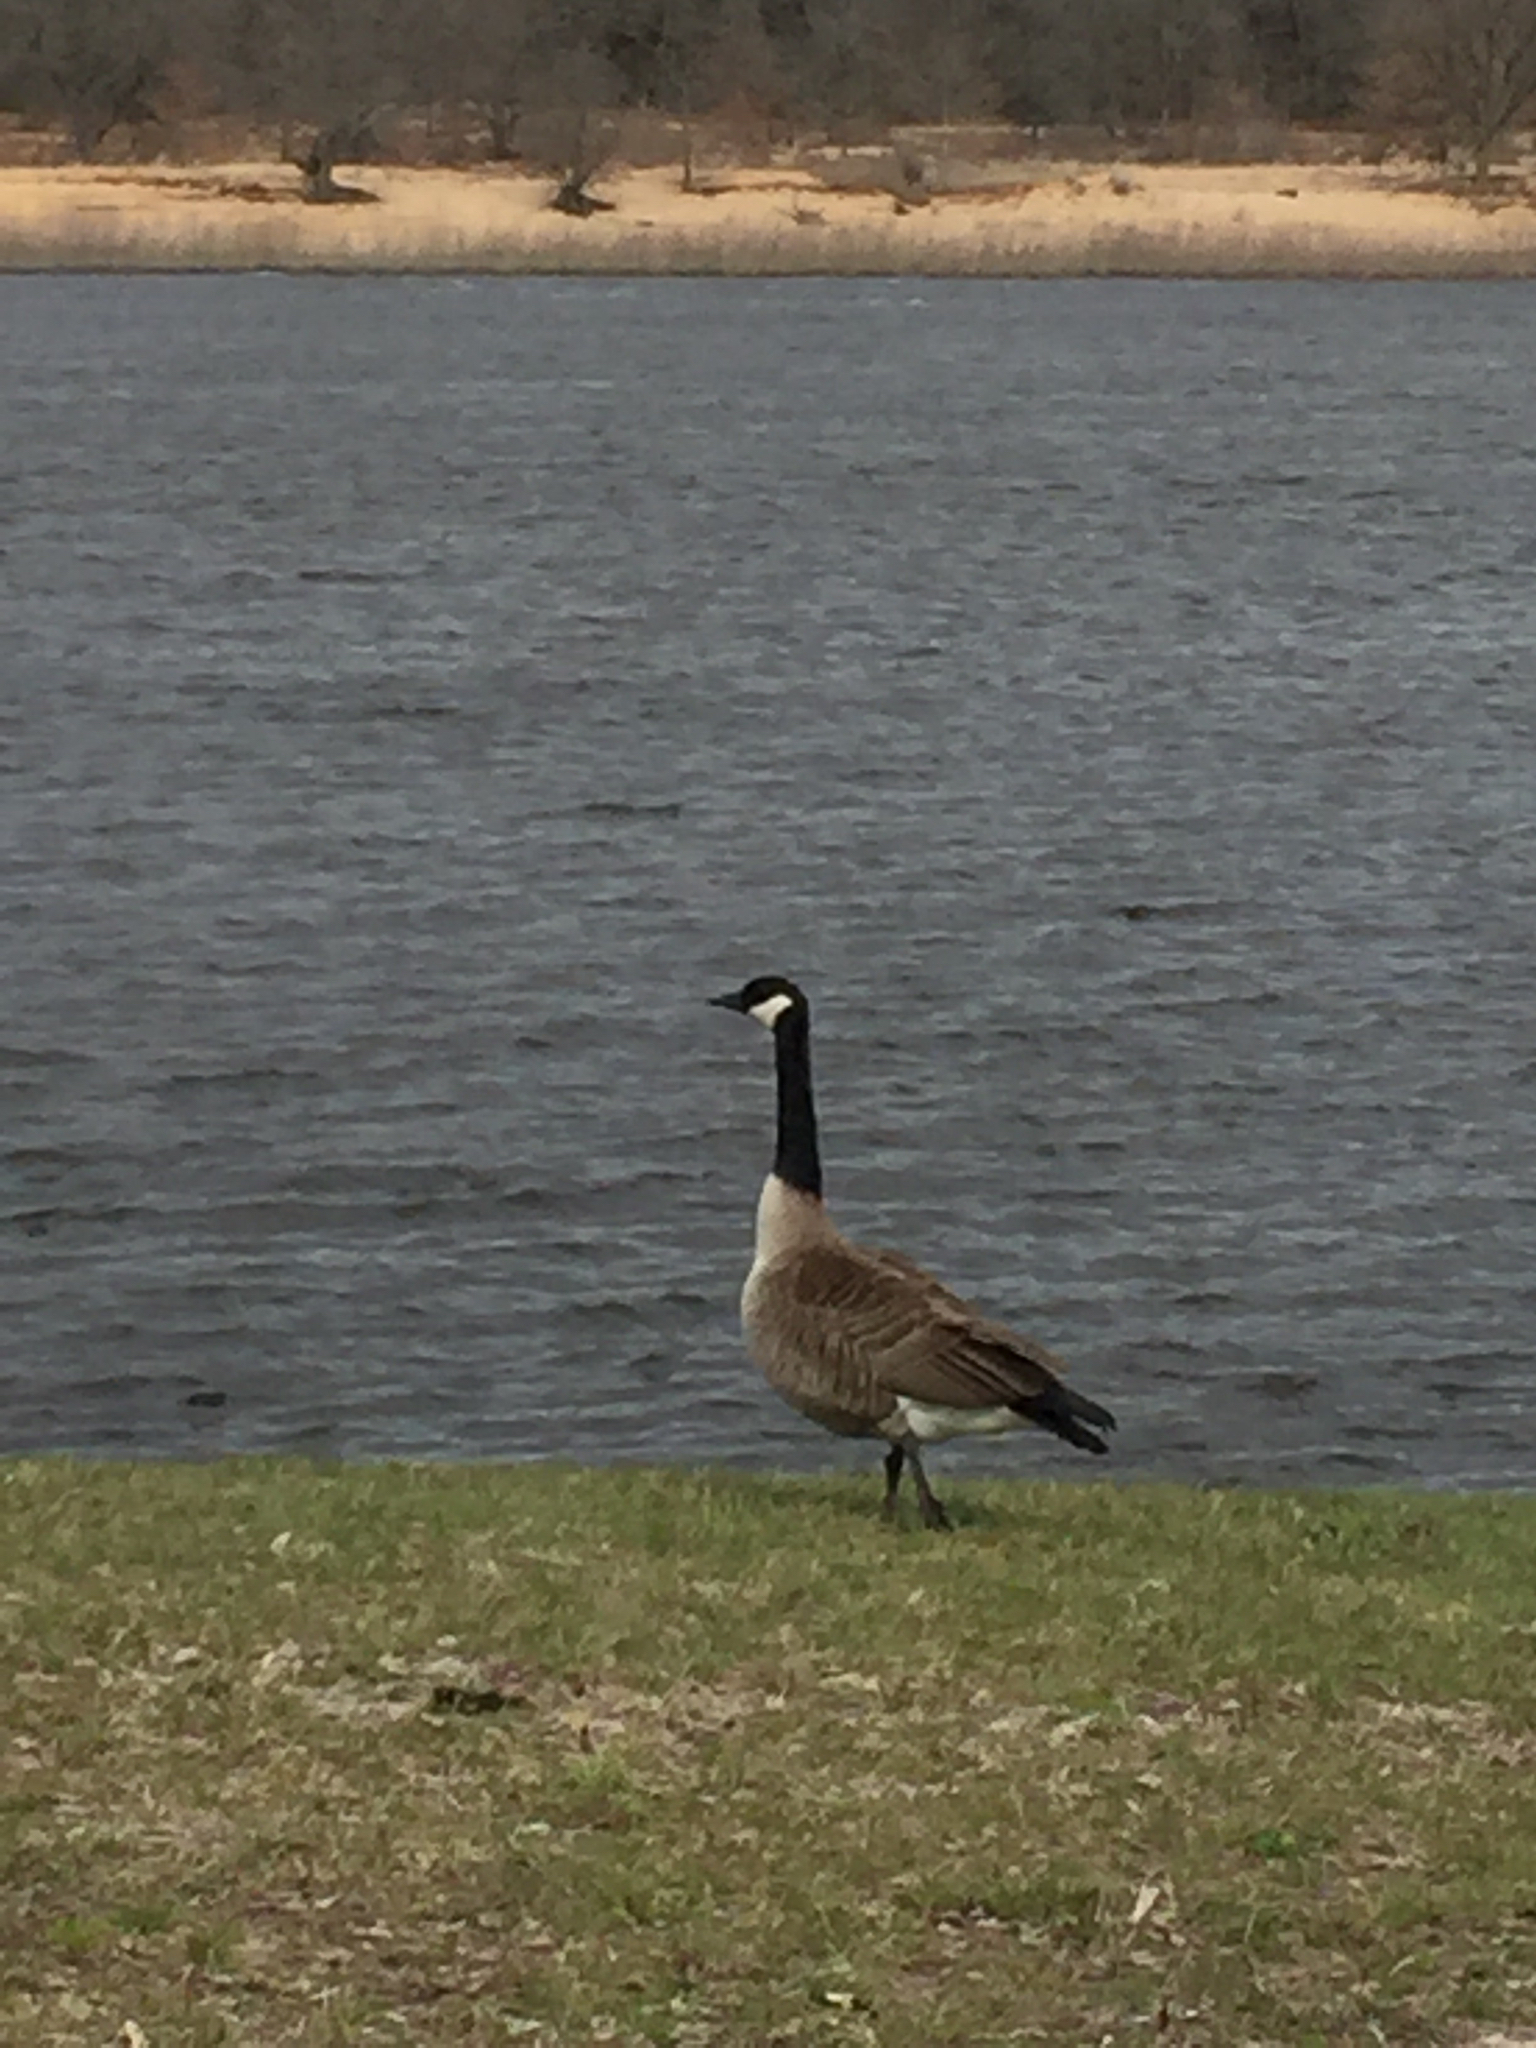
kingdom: Animalia
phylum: Chordata
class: Aves
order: Anseriformes
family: Anatidae
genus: Branta
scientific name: Branta canadensis
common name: Canada goose
